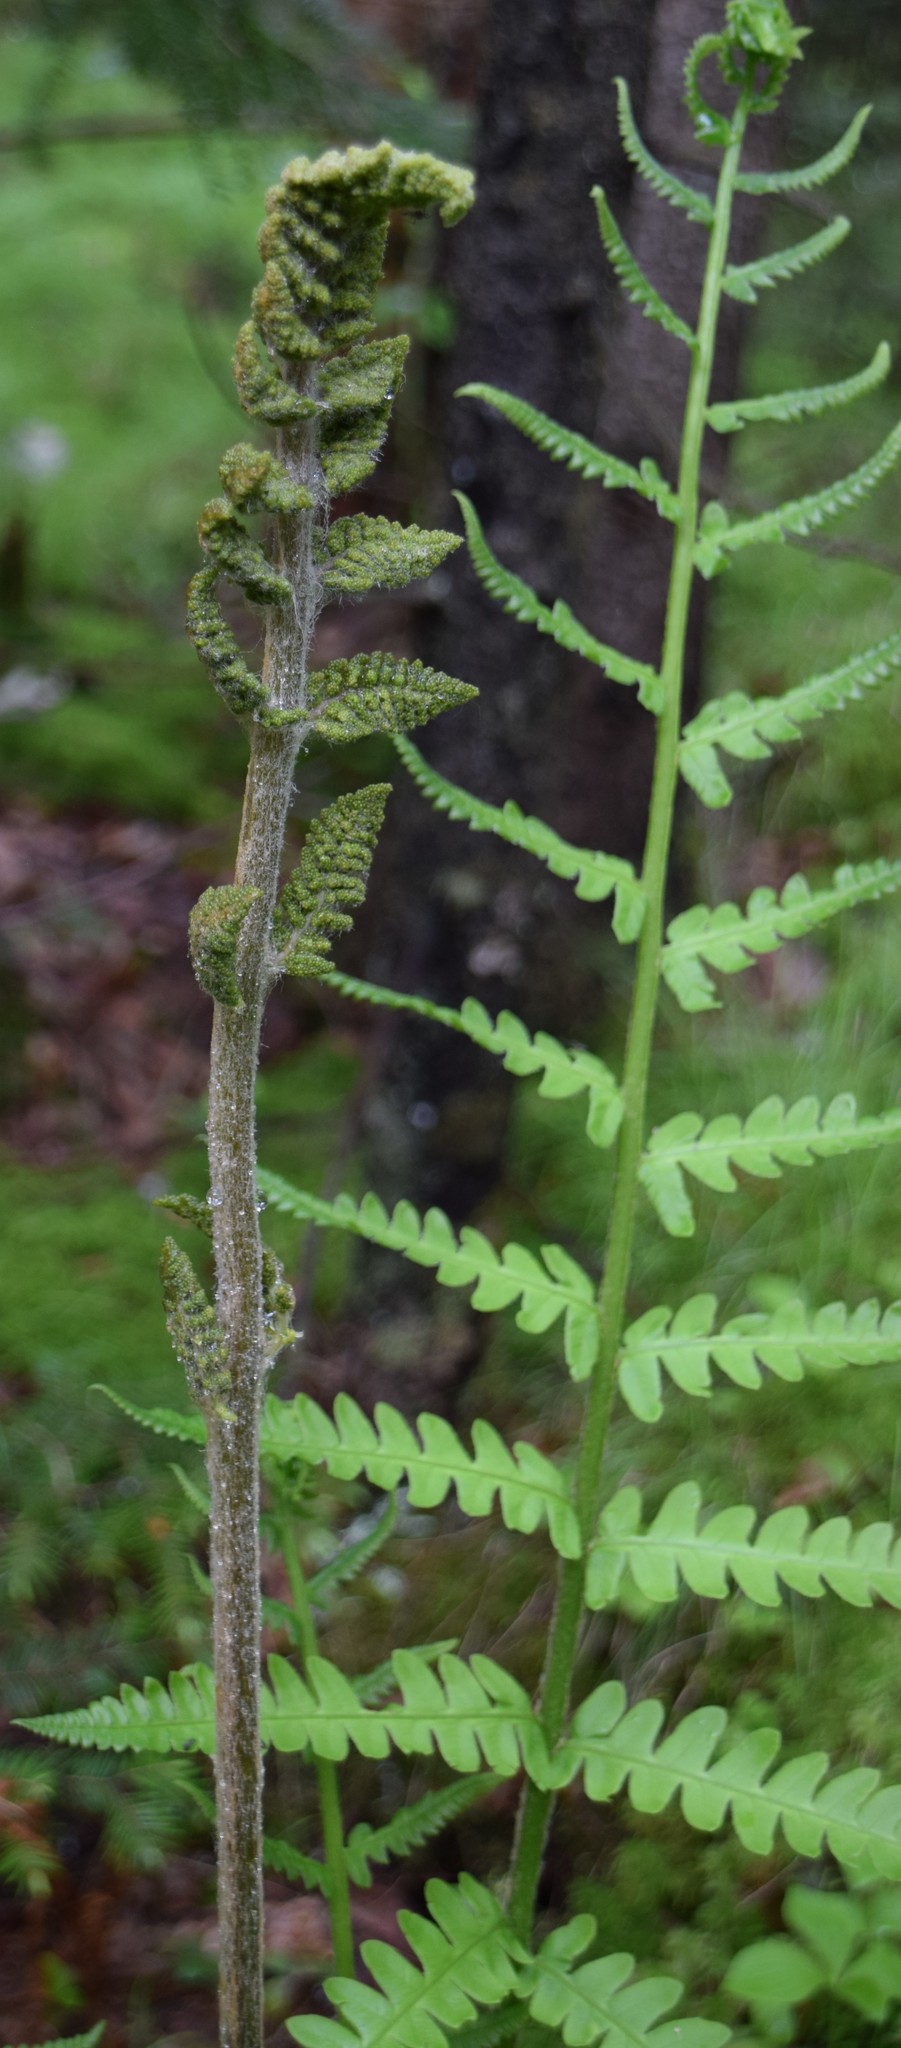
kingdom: Plantae
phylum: Tracheophyta
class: Polypodiopsida
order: Osmundales
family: Osmundaceae
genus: Osmundastrum
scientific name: Osmundastrum cinnamomeum
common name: Cinnamon fern
